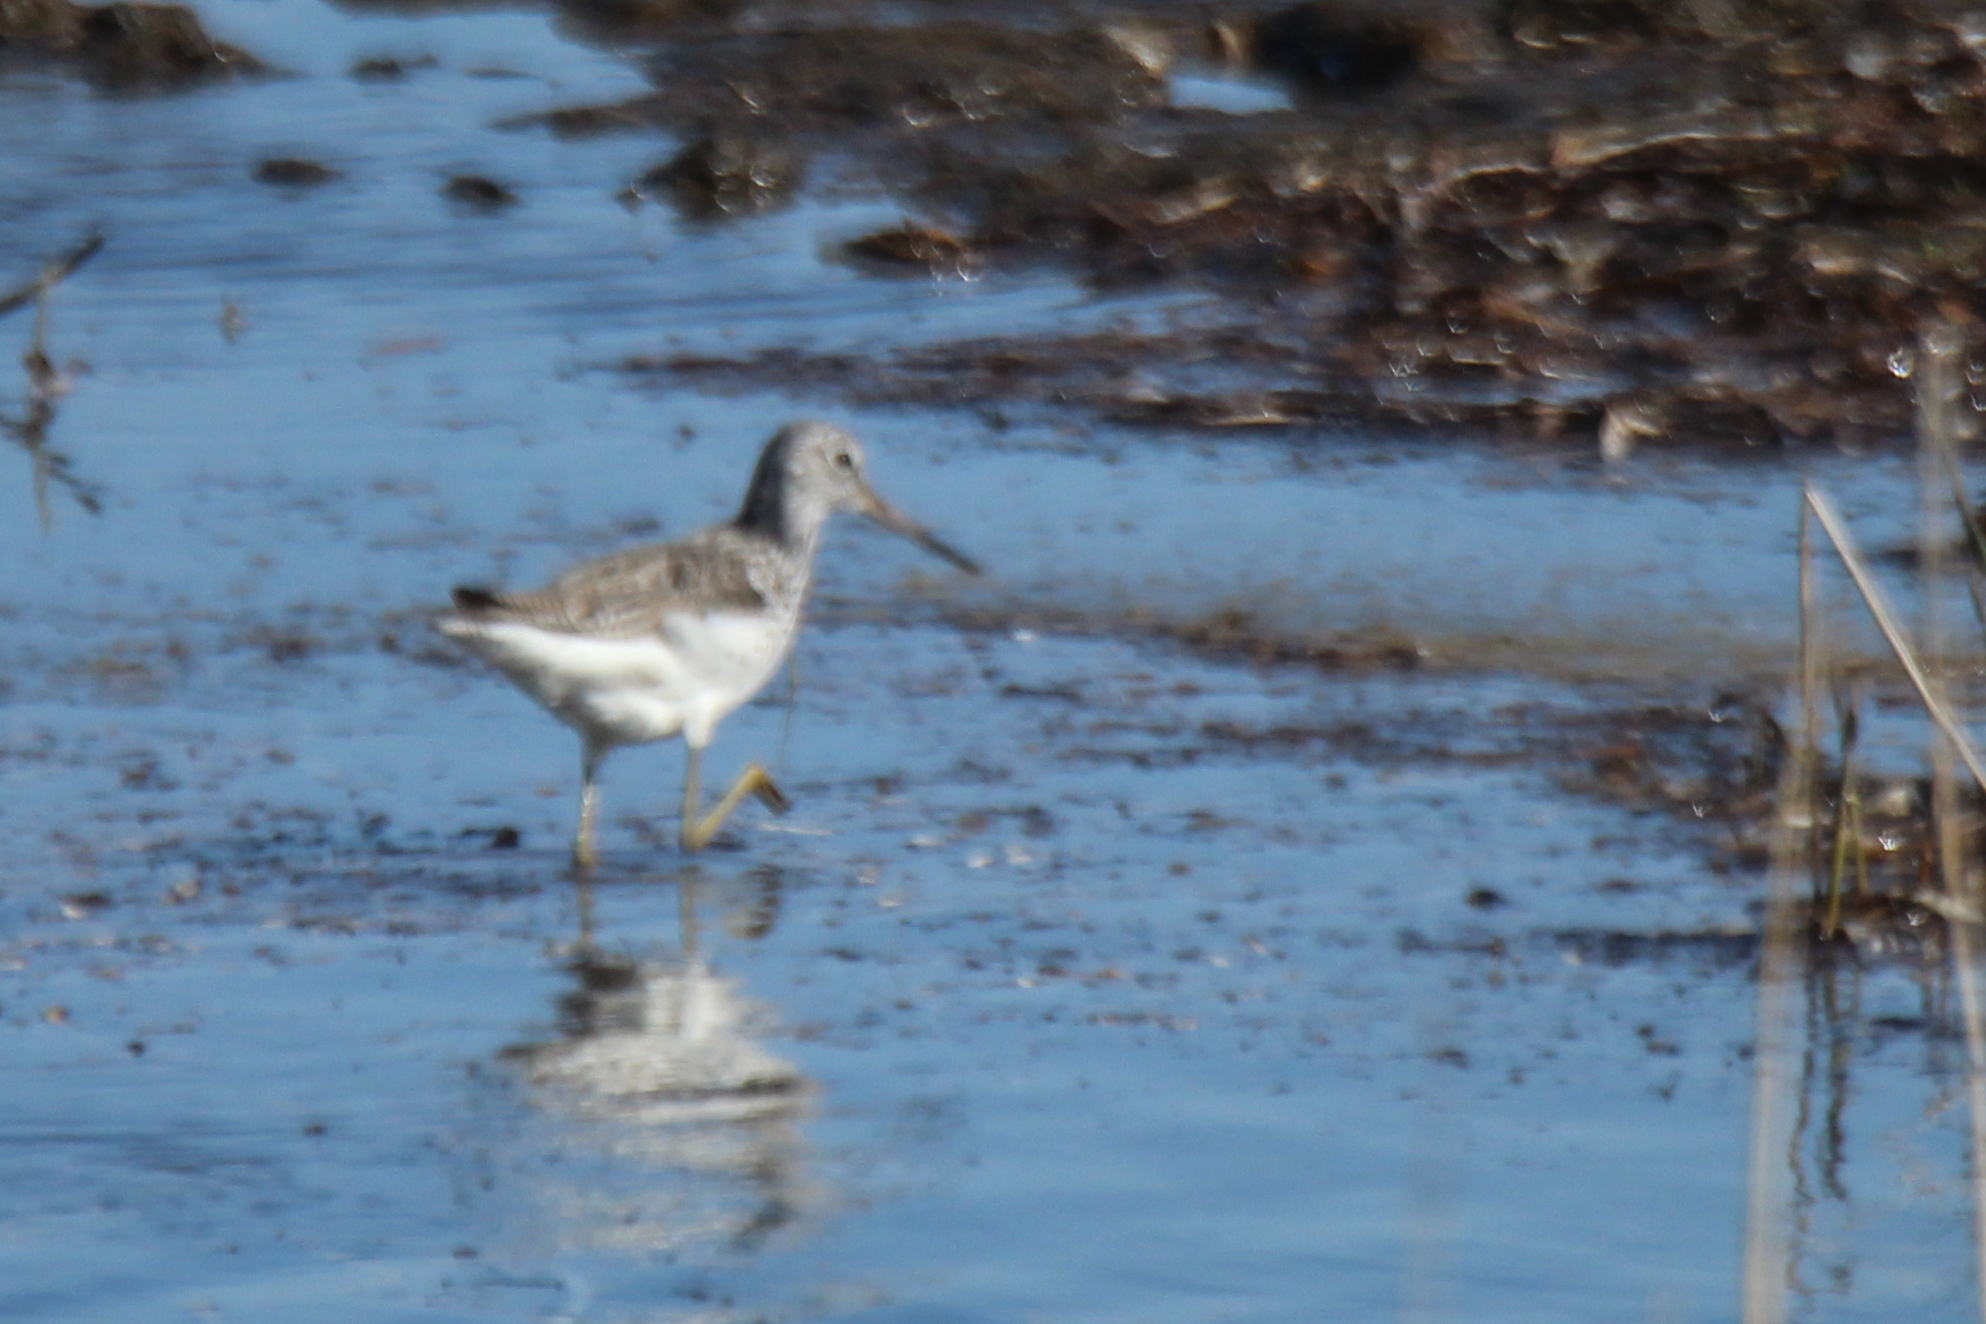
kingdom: Animalia
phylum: Chordata
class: Aves
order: Charadriiformes
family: Scolopacidae
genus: Tringa
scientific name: Tringa nebularia
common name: Common greenshank
